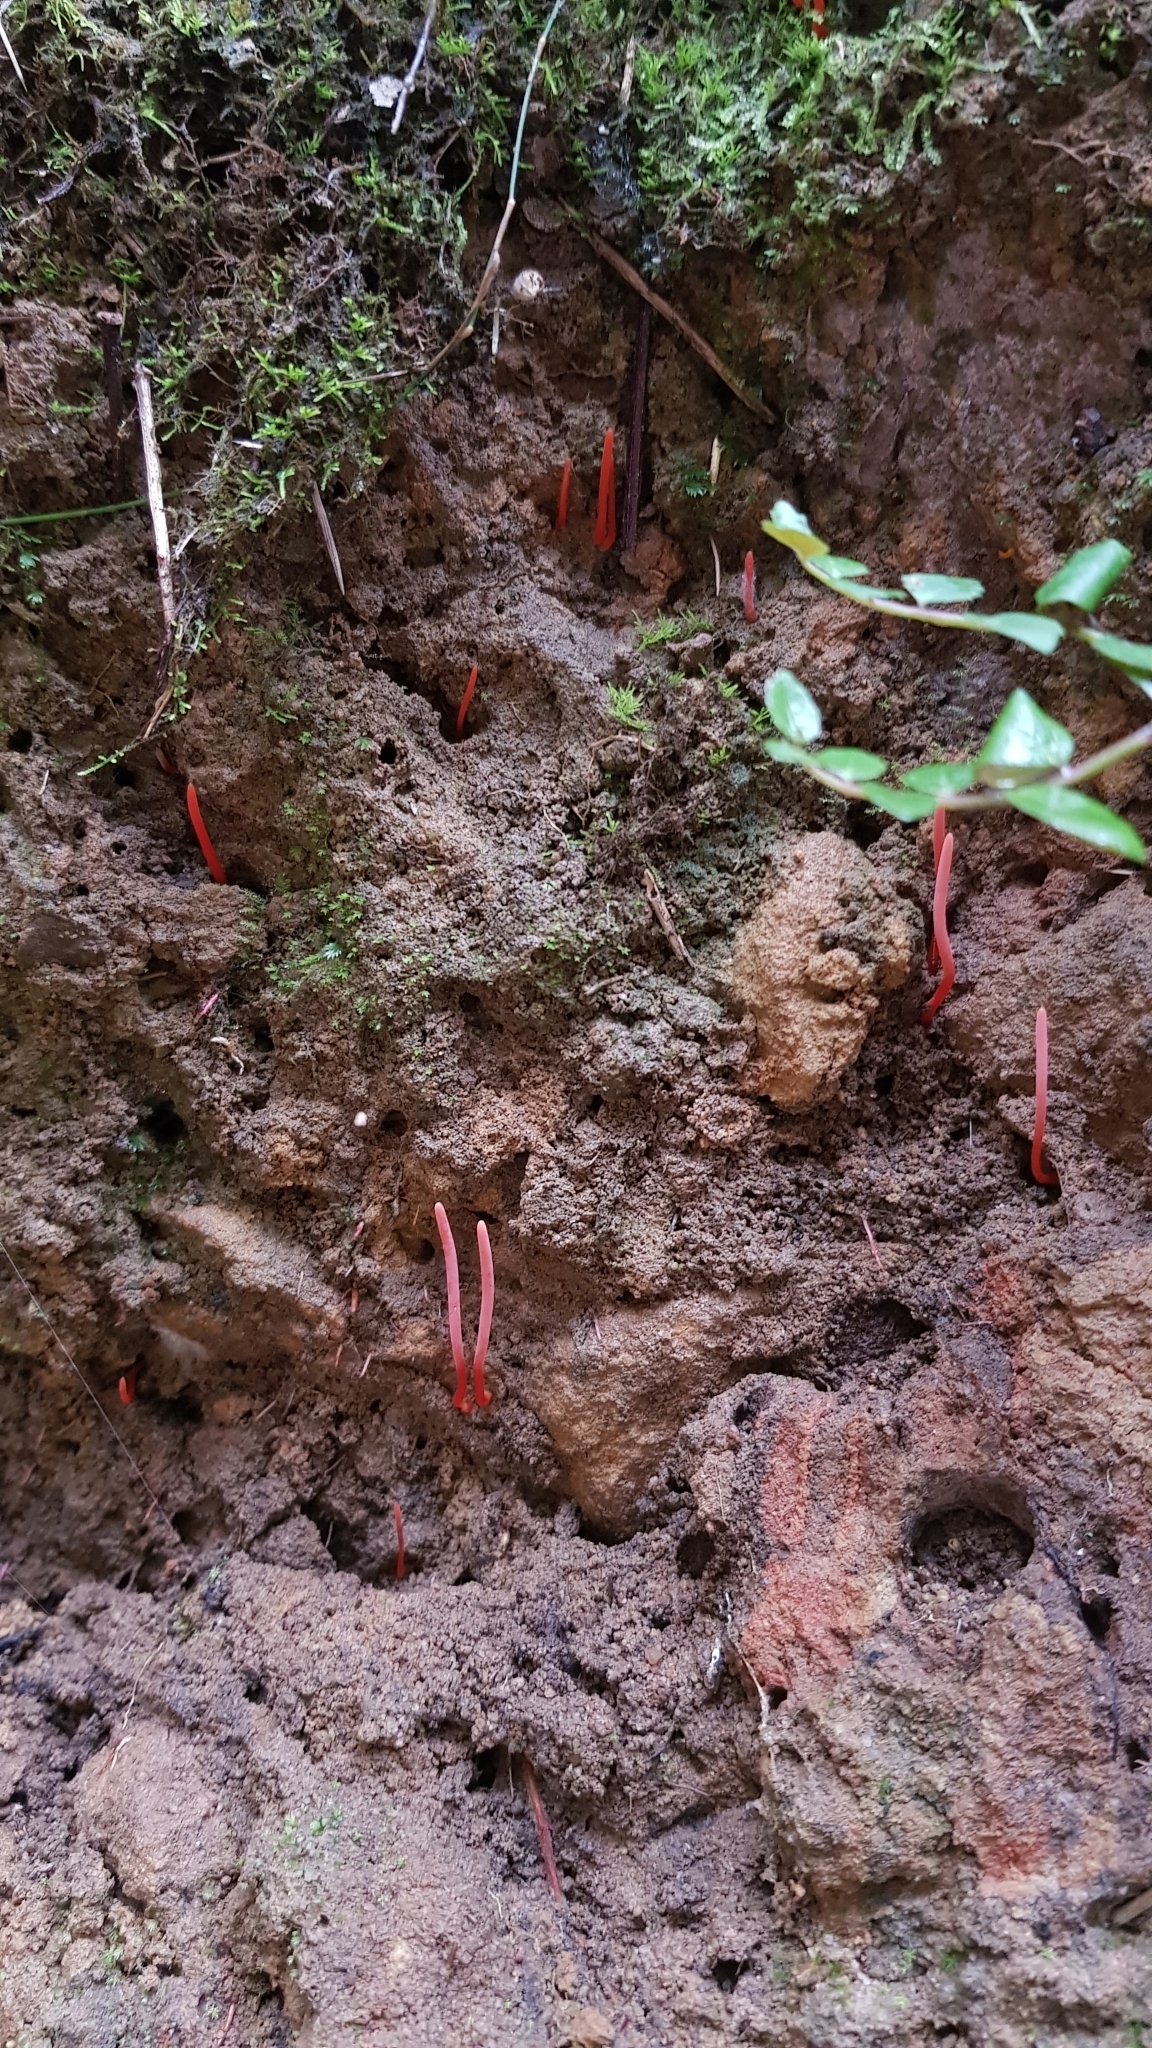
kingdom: Fungi
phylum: Basidiomycota
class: Agaricomycetes
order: Agaricales
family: Clavariaceae
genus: Clavulinopsis
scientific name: Clavulinopsis corallinorosacea
